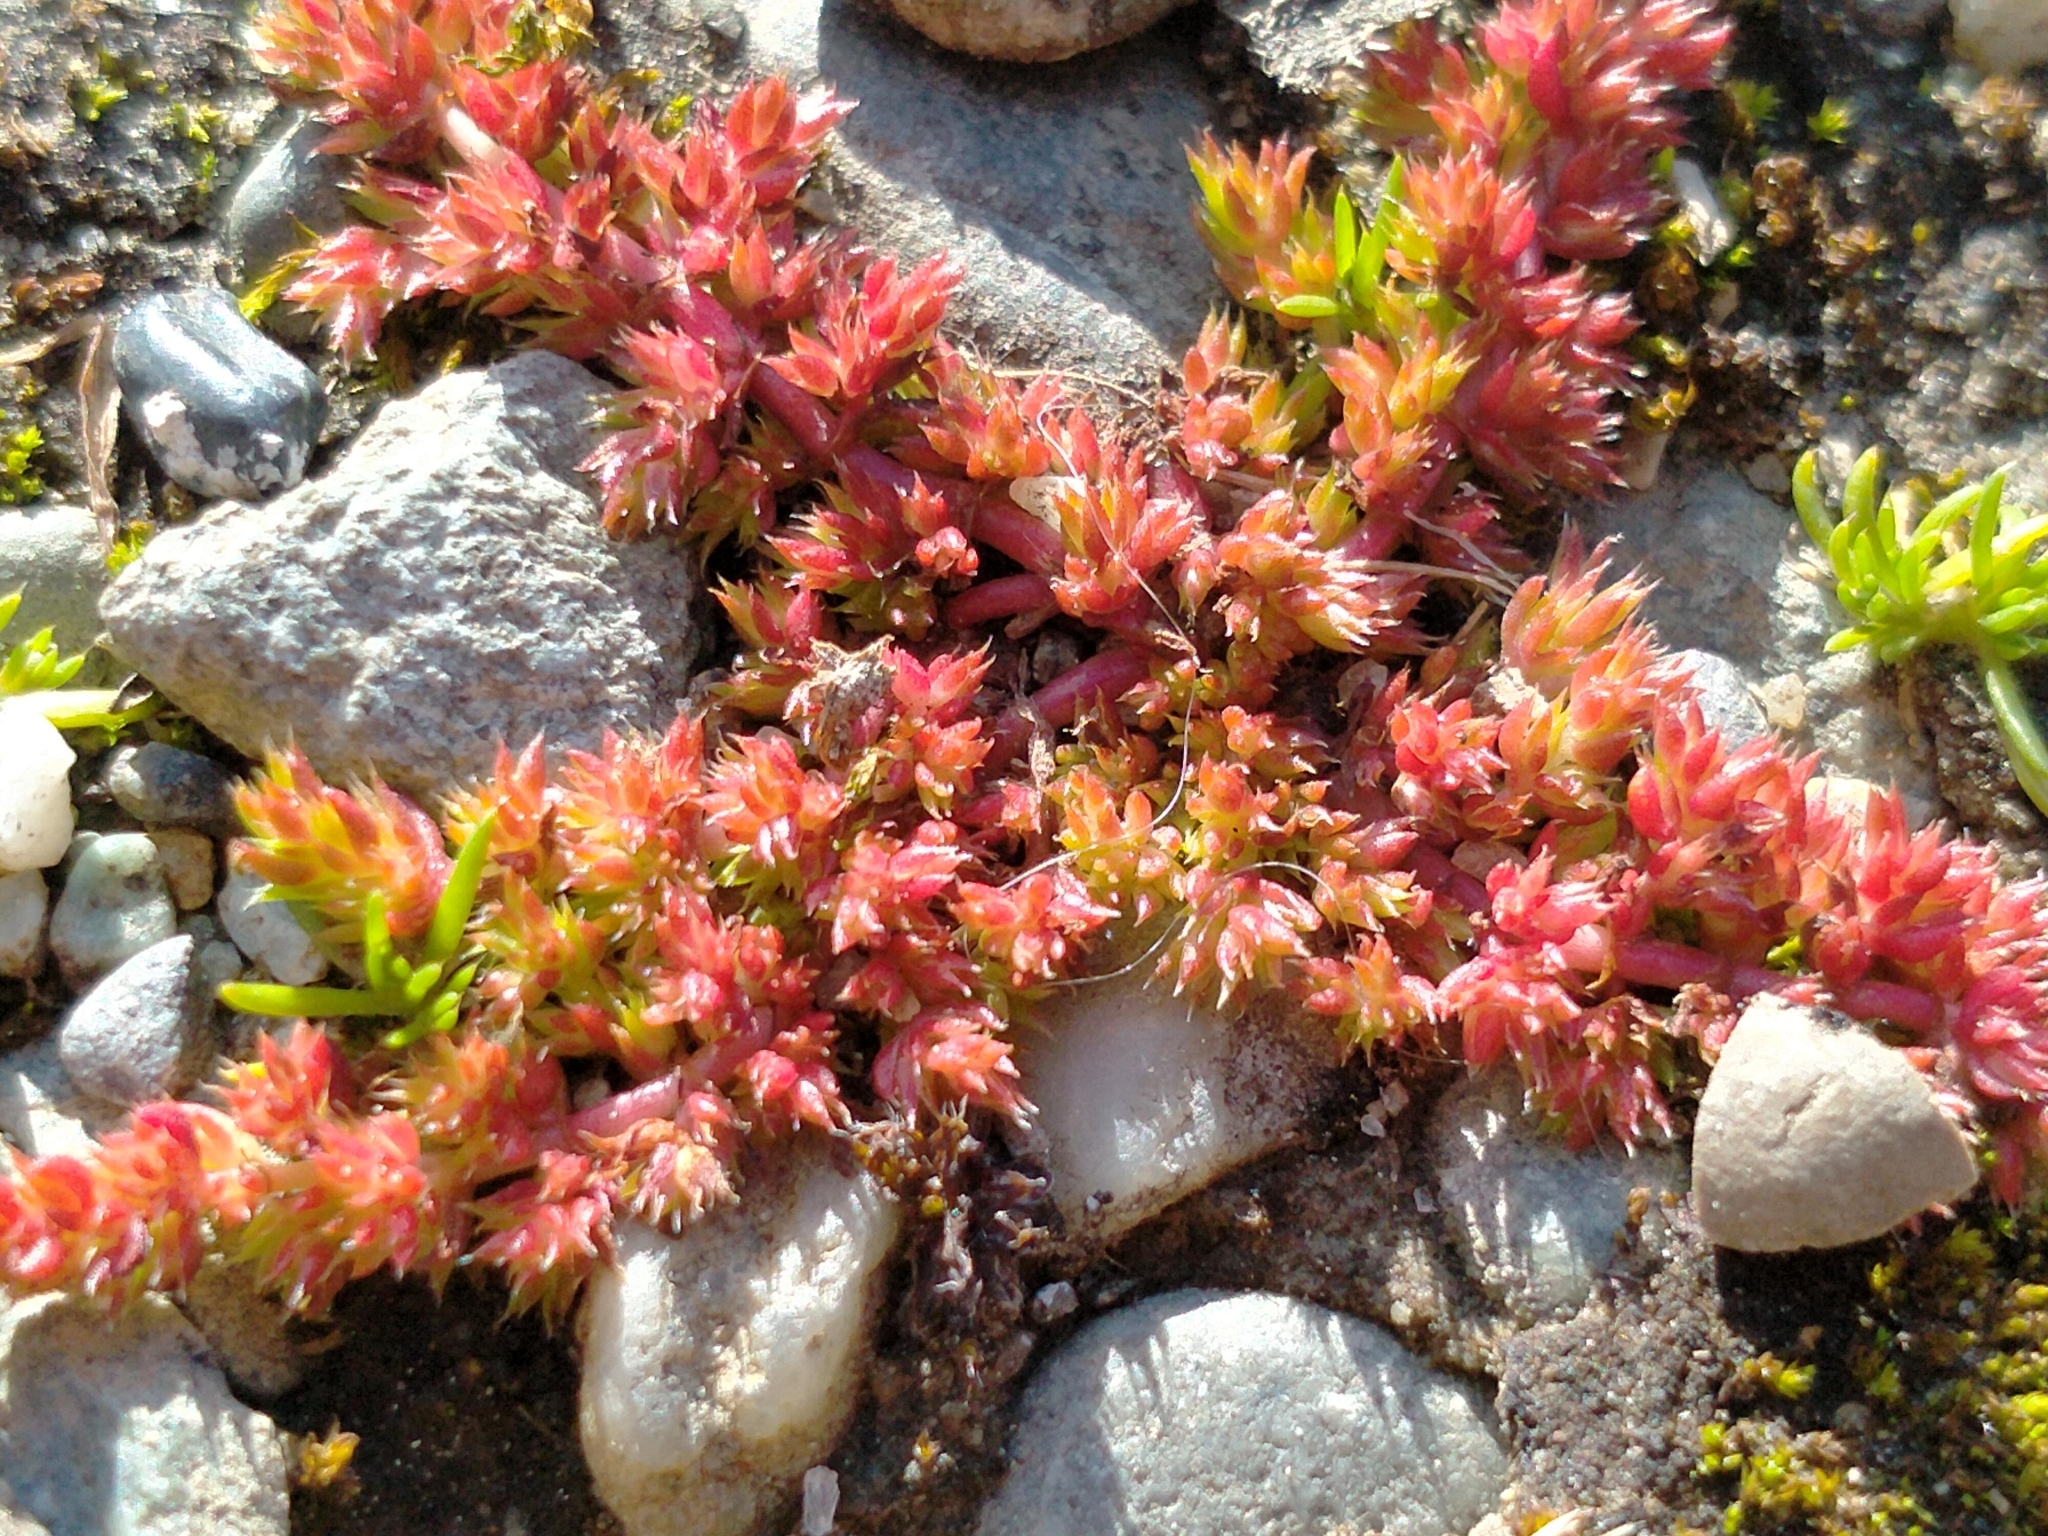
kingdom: Plantae
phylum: Tracheophyta
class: Magnoliopsida
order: Saxifragales
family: Crassulaceae
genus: Crassula
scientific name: Crassula alata
